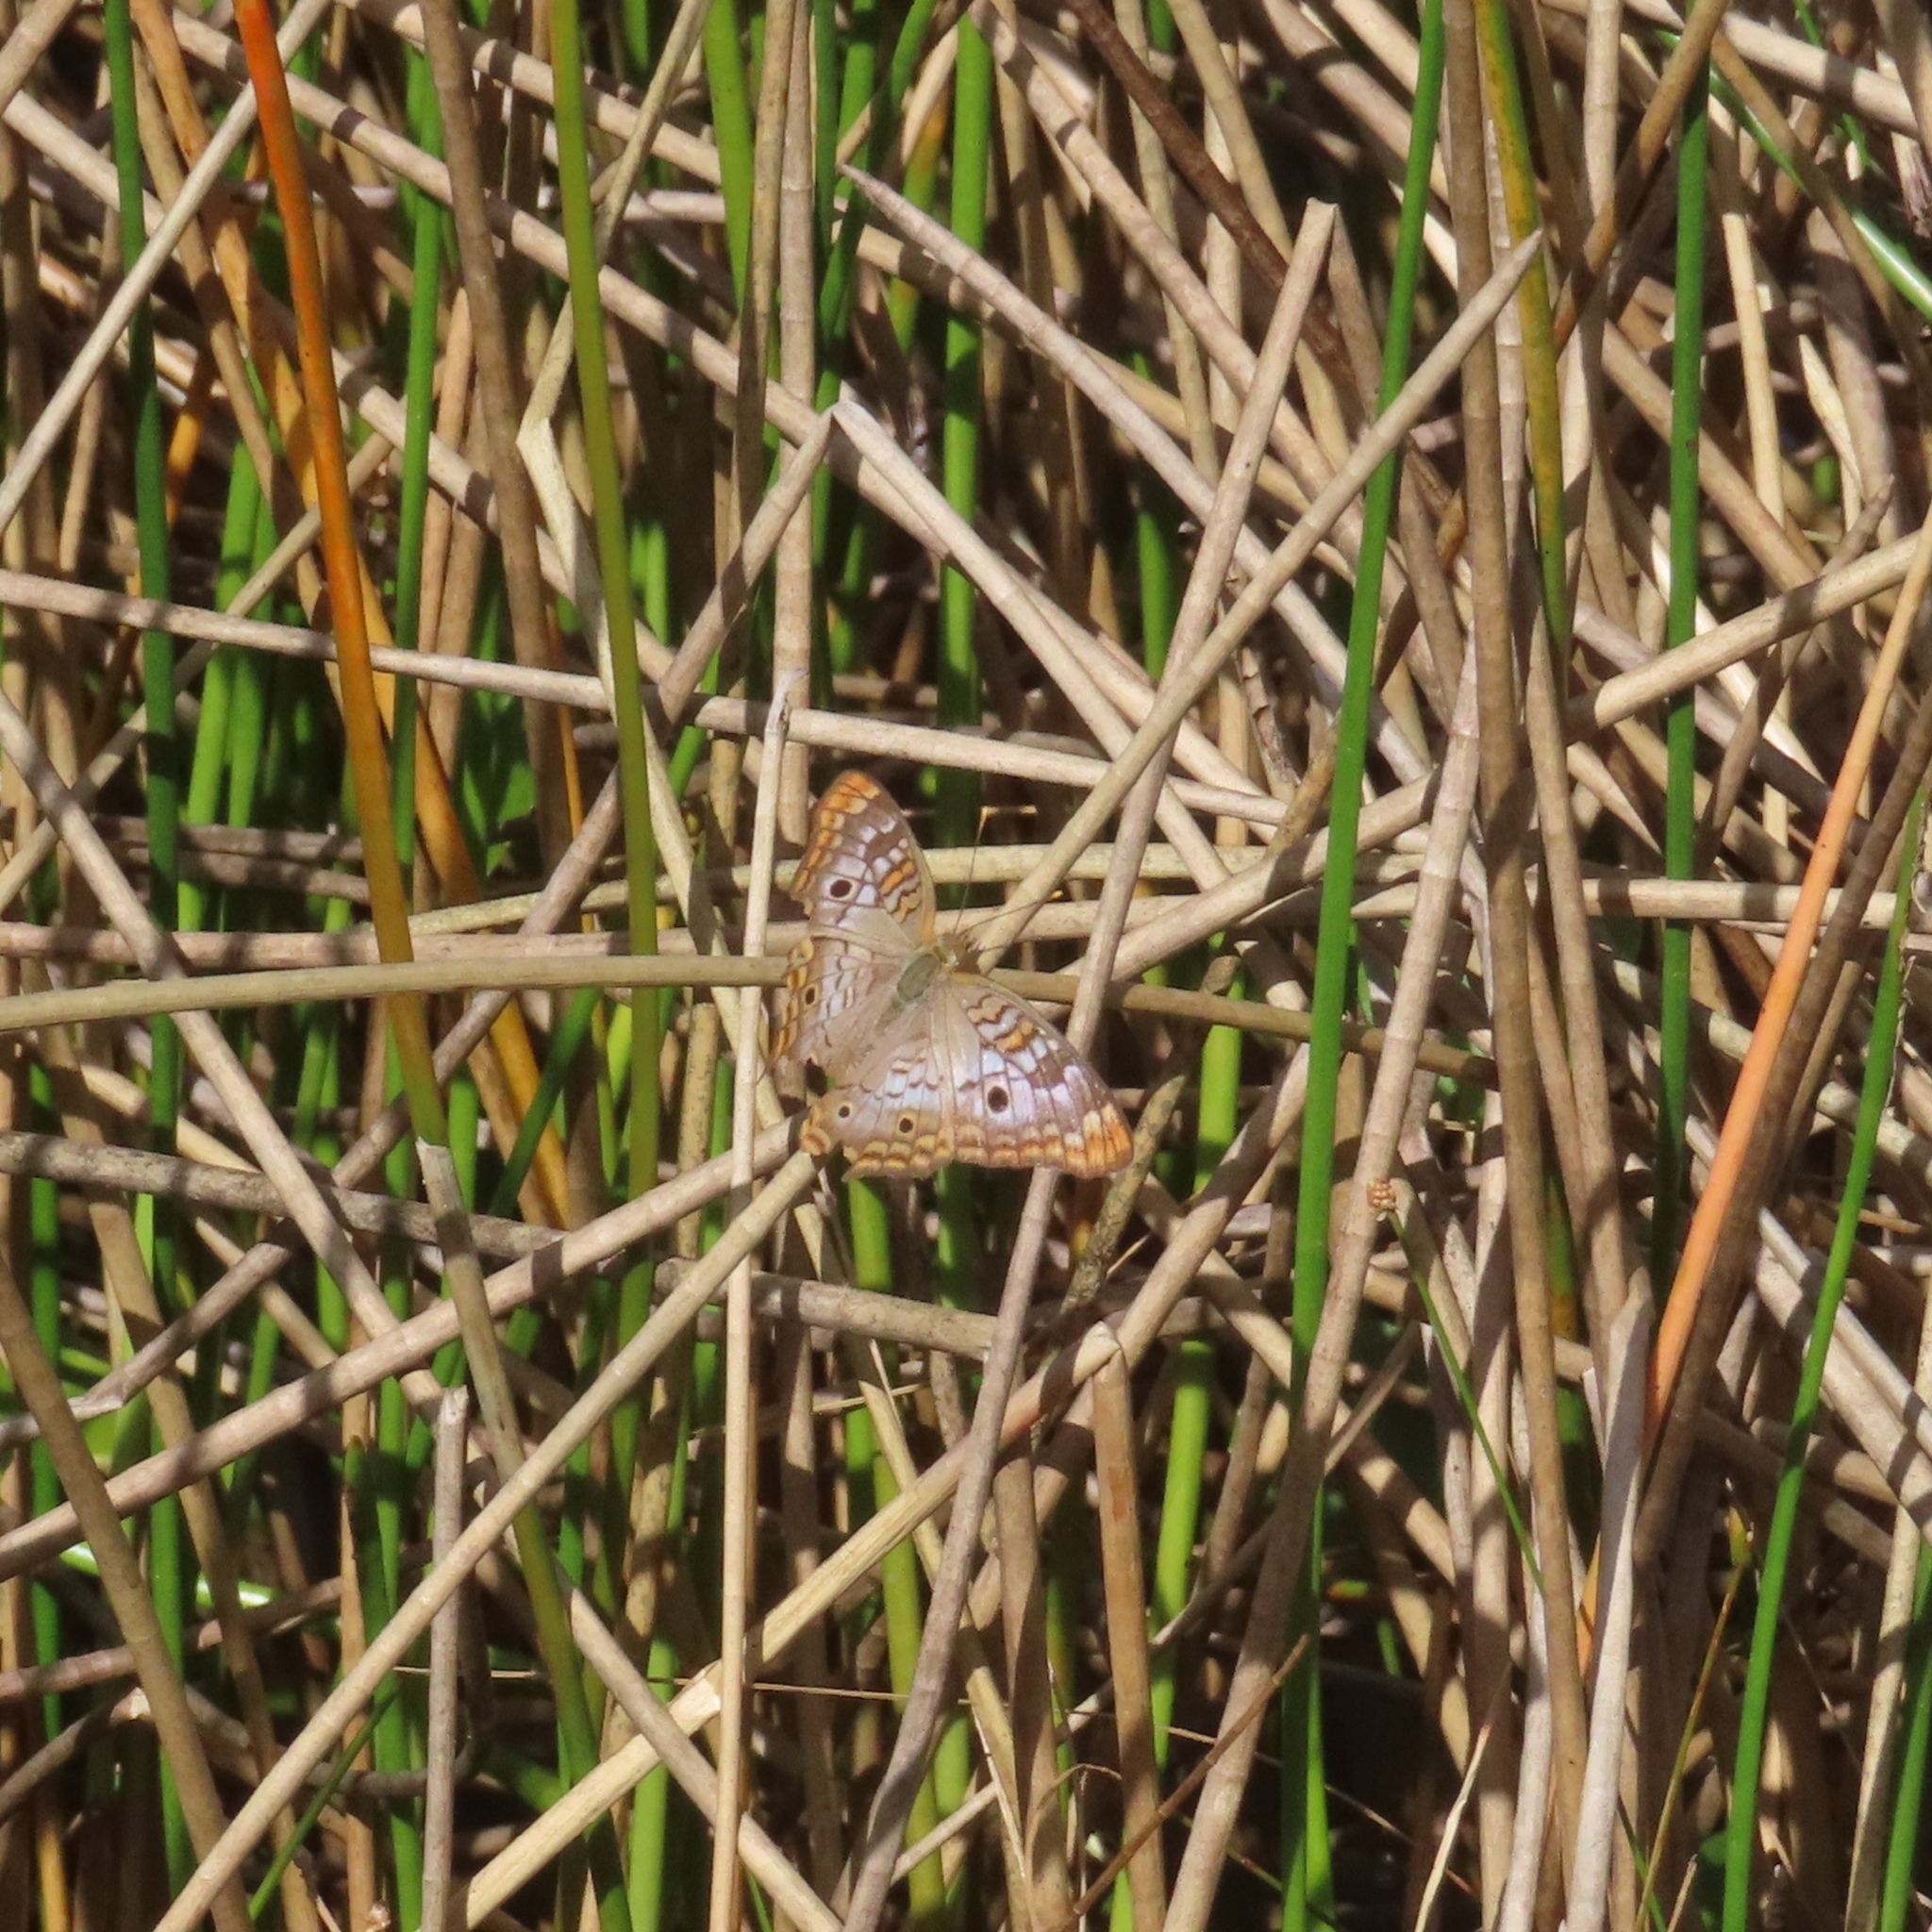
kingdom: Animalia
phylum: Arthropoda
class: Insecta
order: Lepidoptera
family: Nymphalidae
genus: Anartia
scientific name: Anartia jatrophae
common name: White peacock
